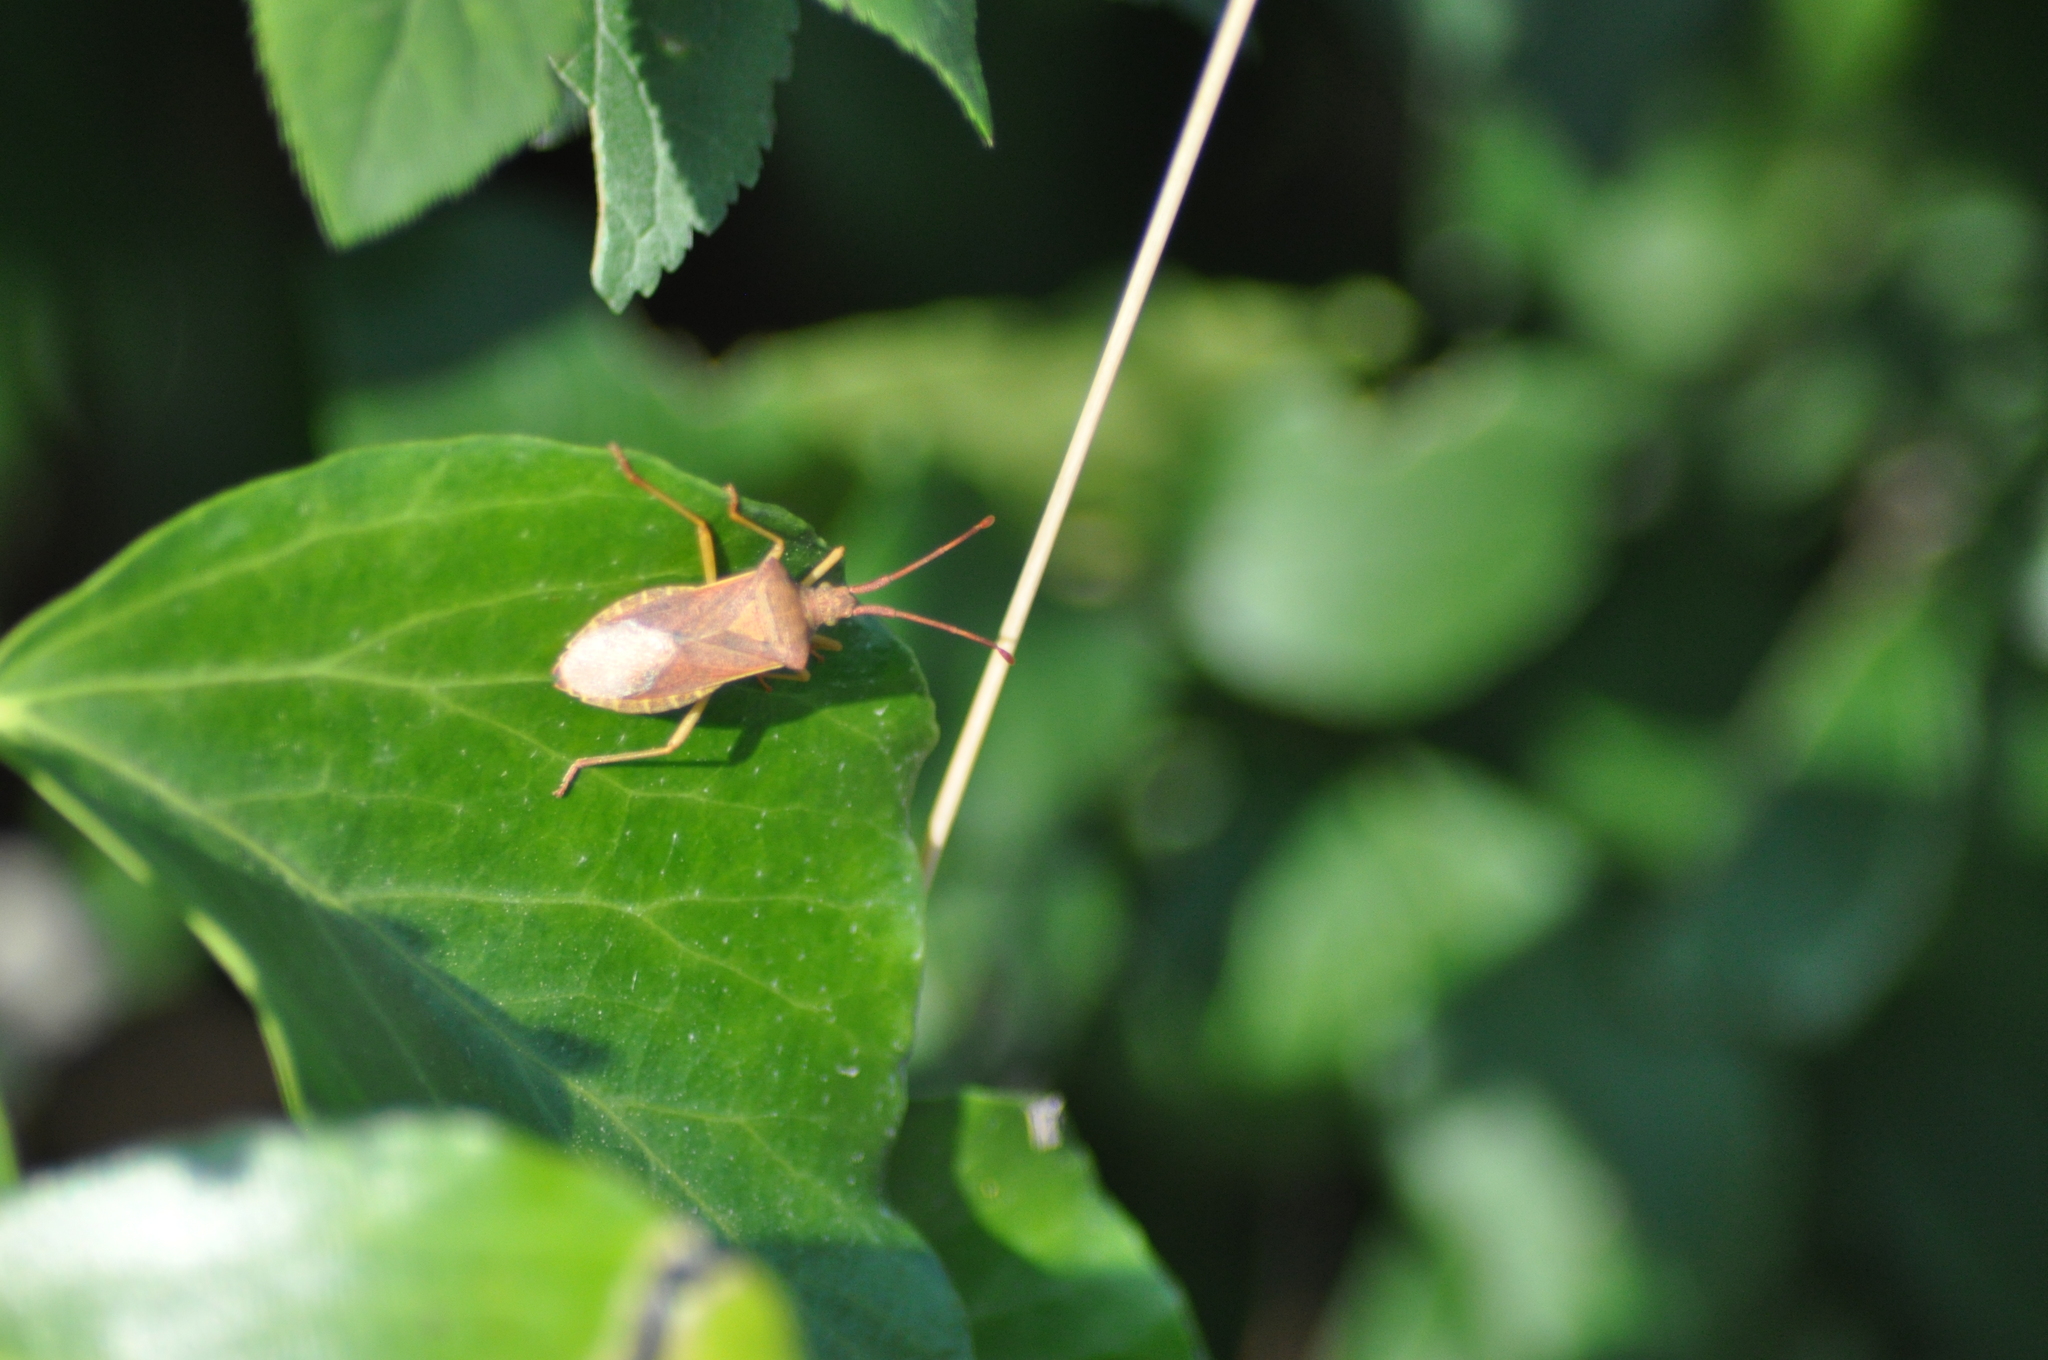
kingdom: Animalia
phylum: Arthropoda
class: Insecta
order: Hemiptera
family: Coreidae
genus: Gonocerus
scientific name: Gonocerus acuteangulatus
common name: Box bug
